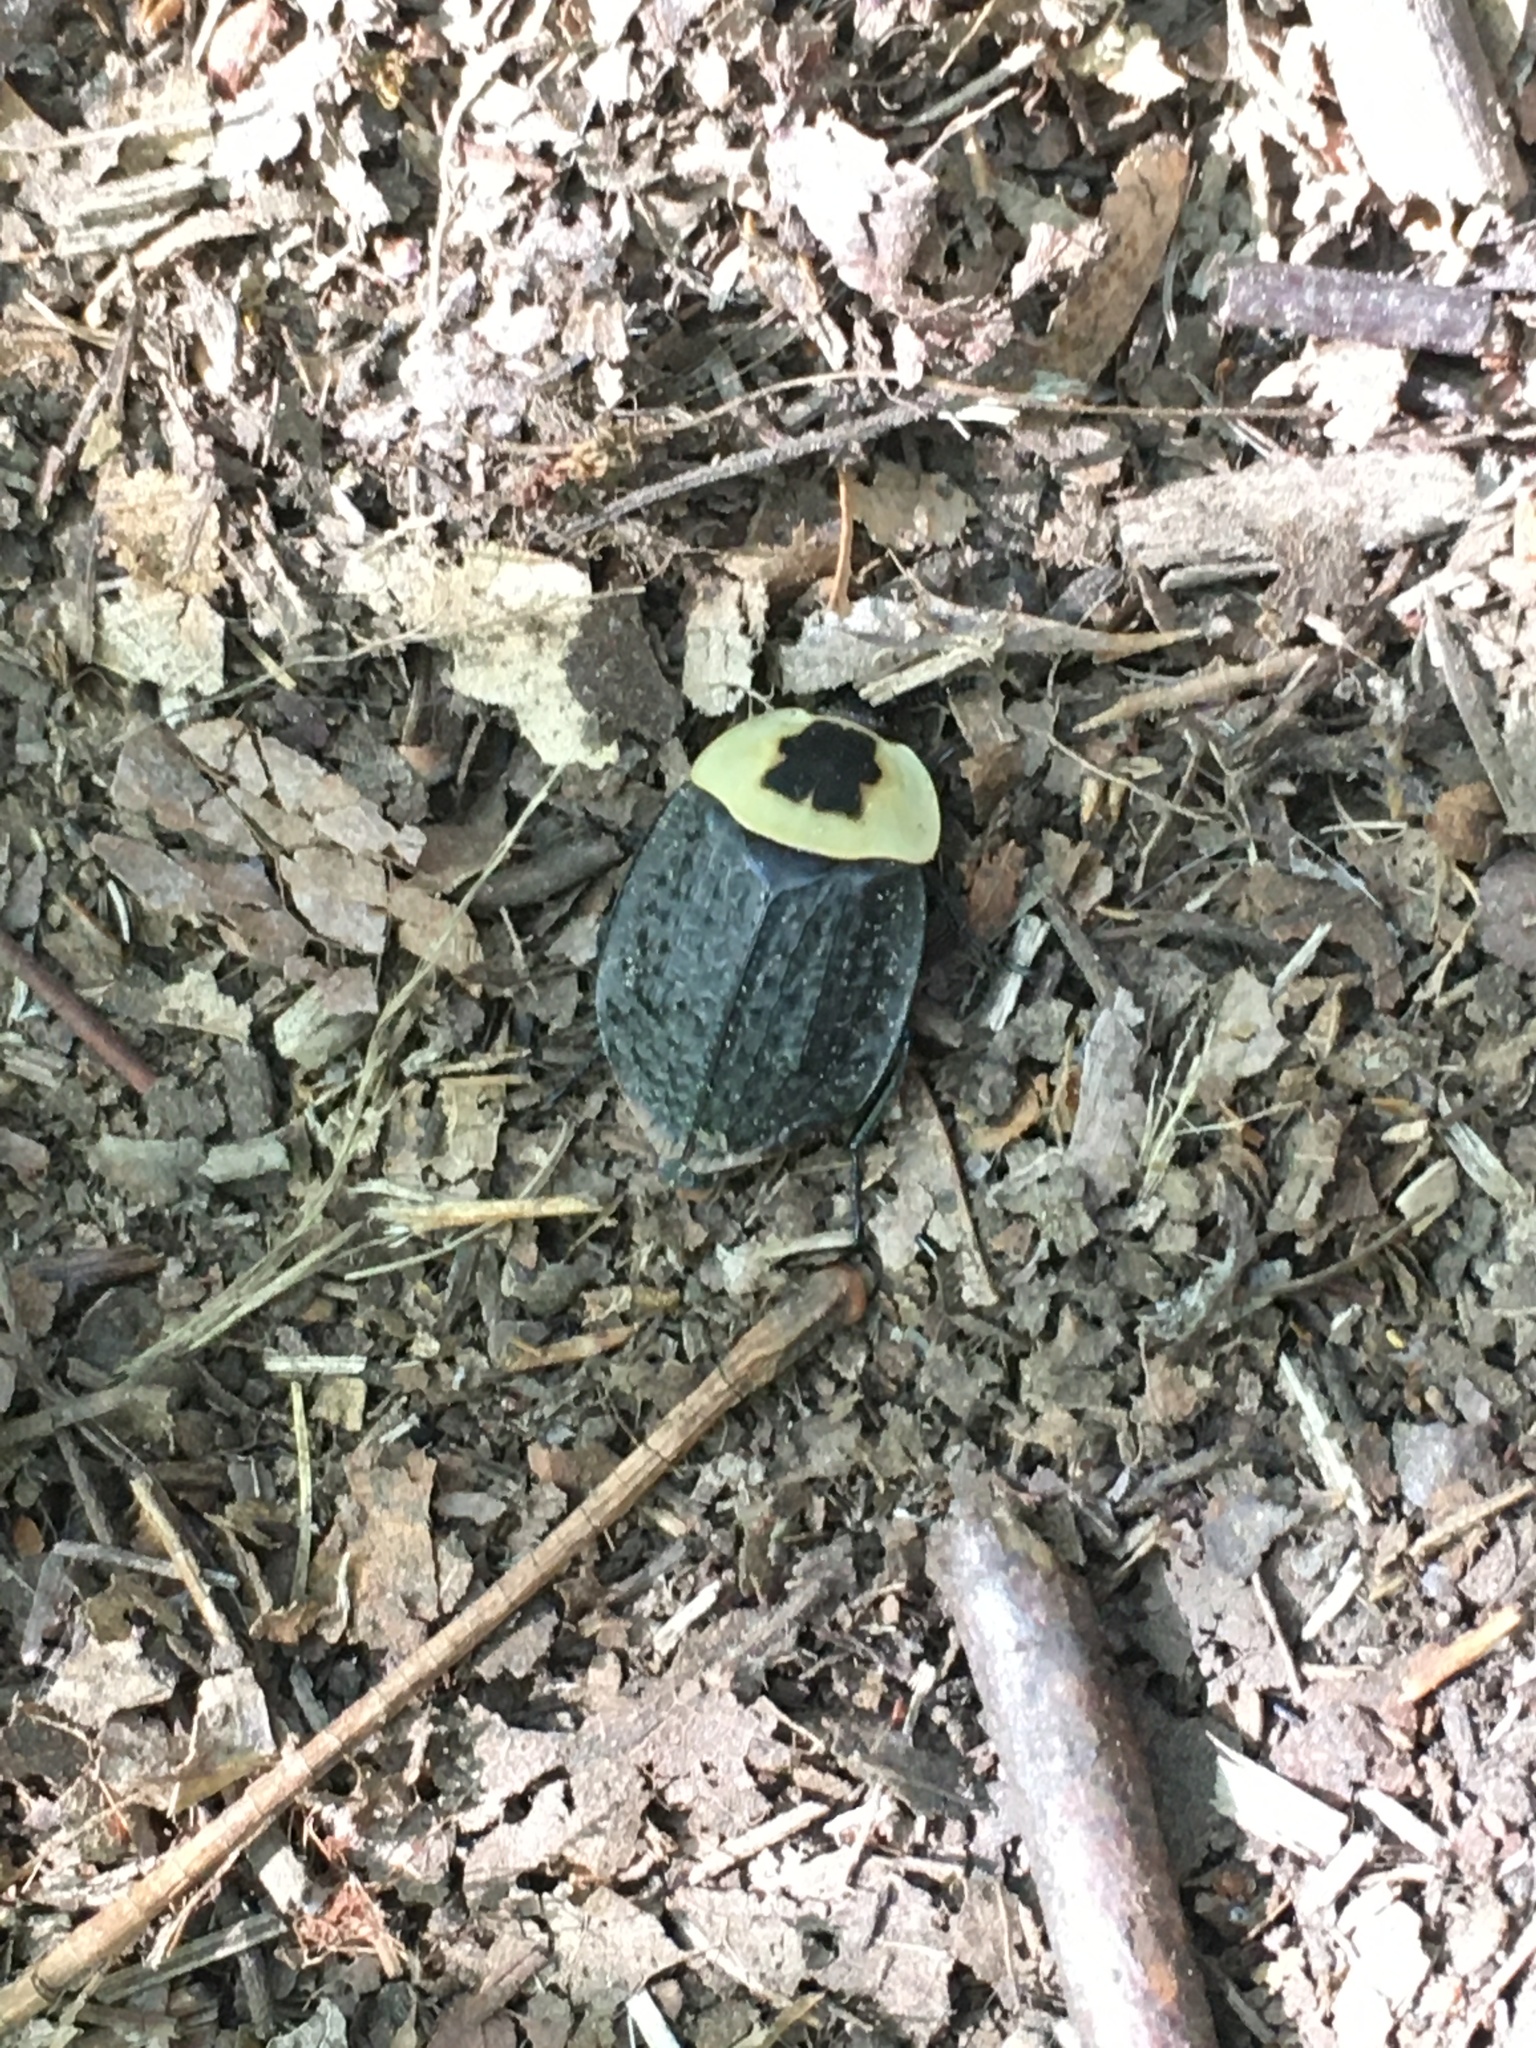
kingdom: Animalia
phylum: Arthropoda
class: Insecta
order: Coleoptera
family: Staphylinidae
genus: Necrophila
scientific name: Necrophila americana
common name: American carrion beetle
